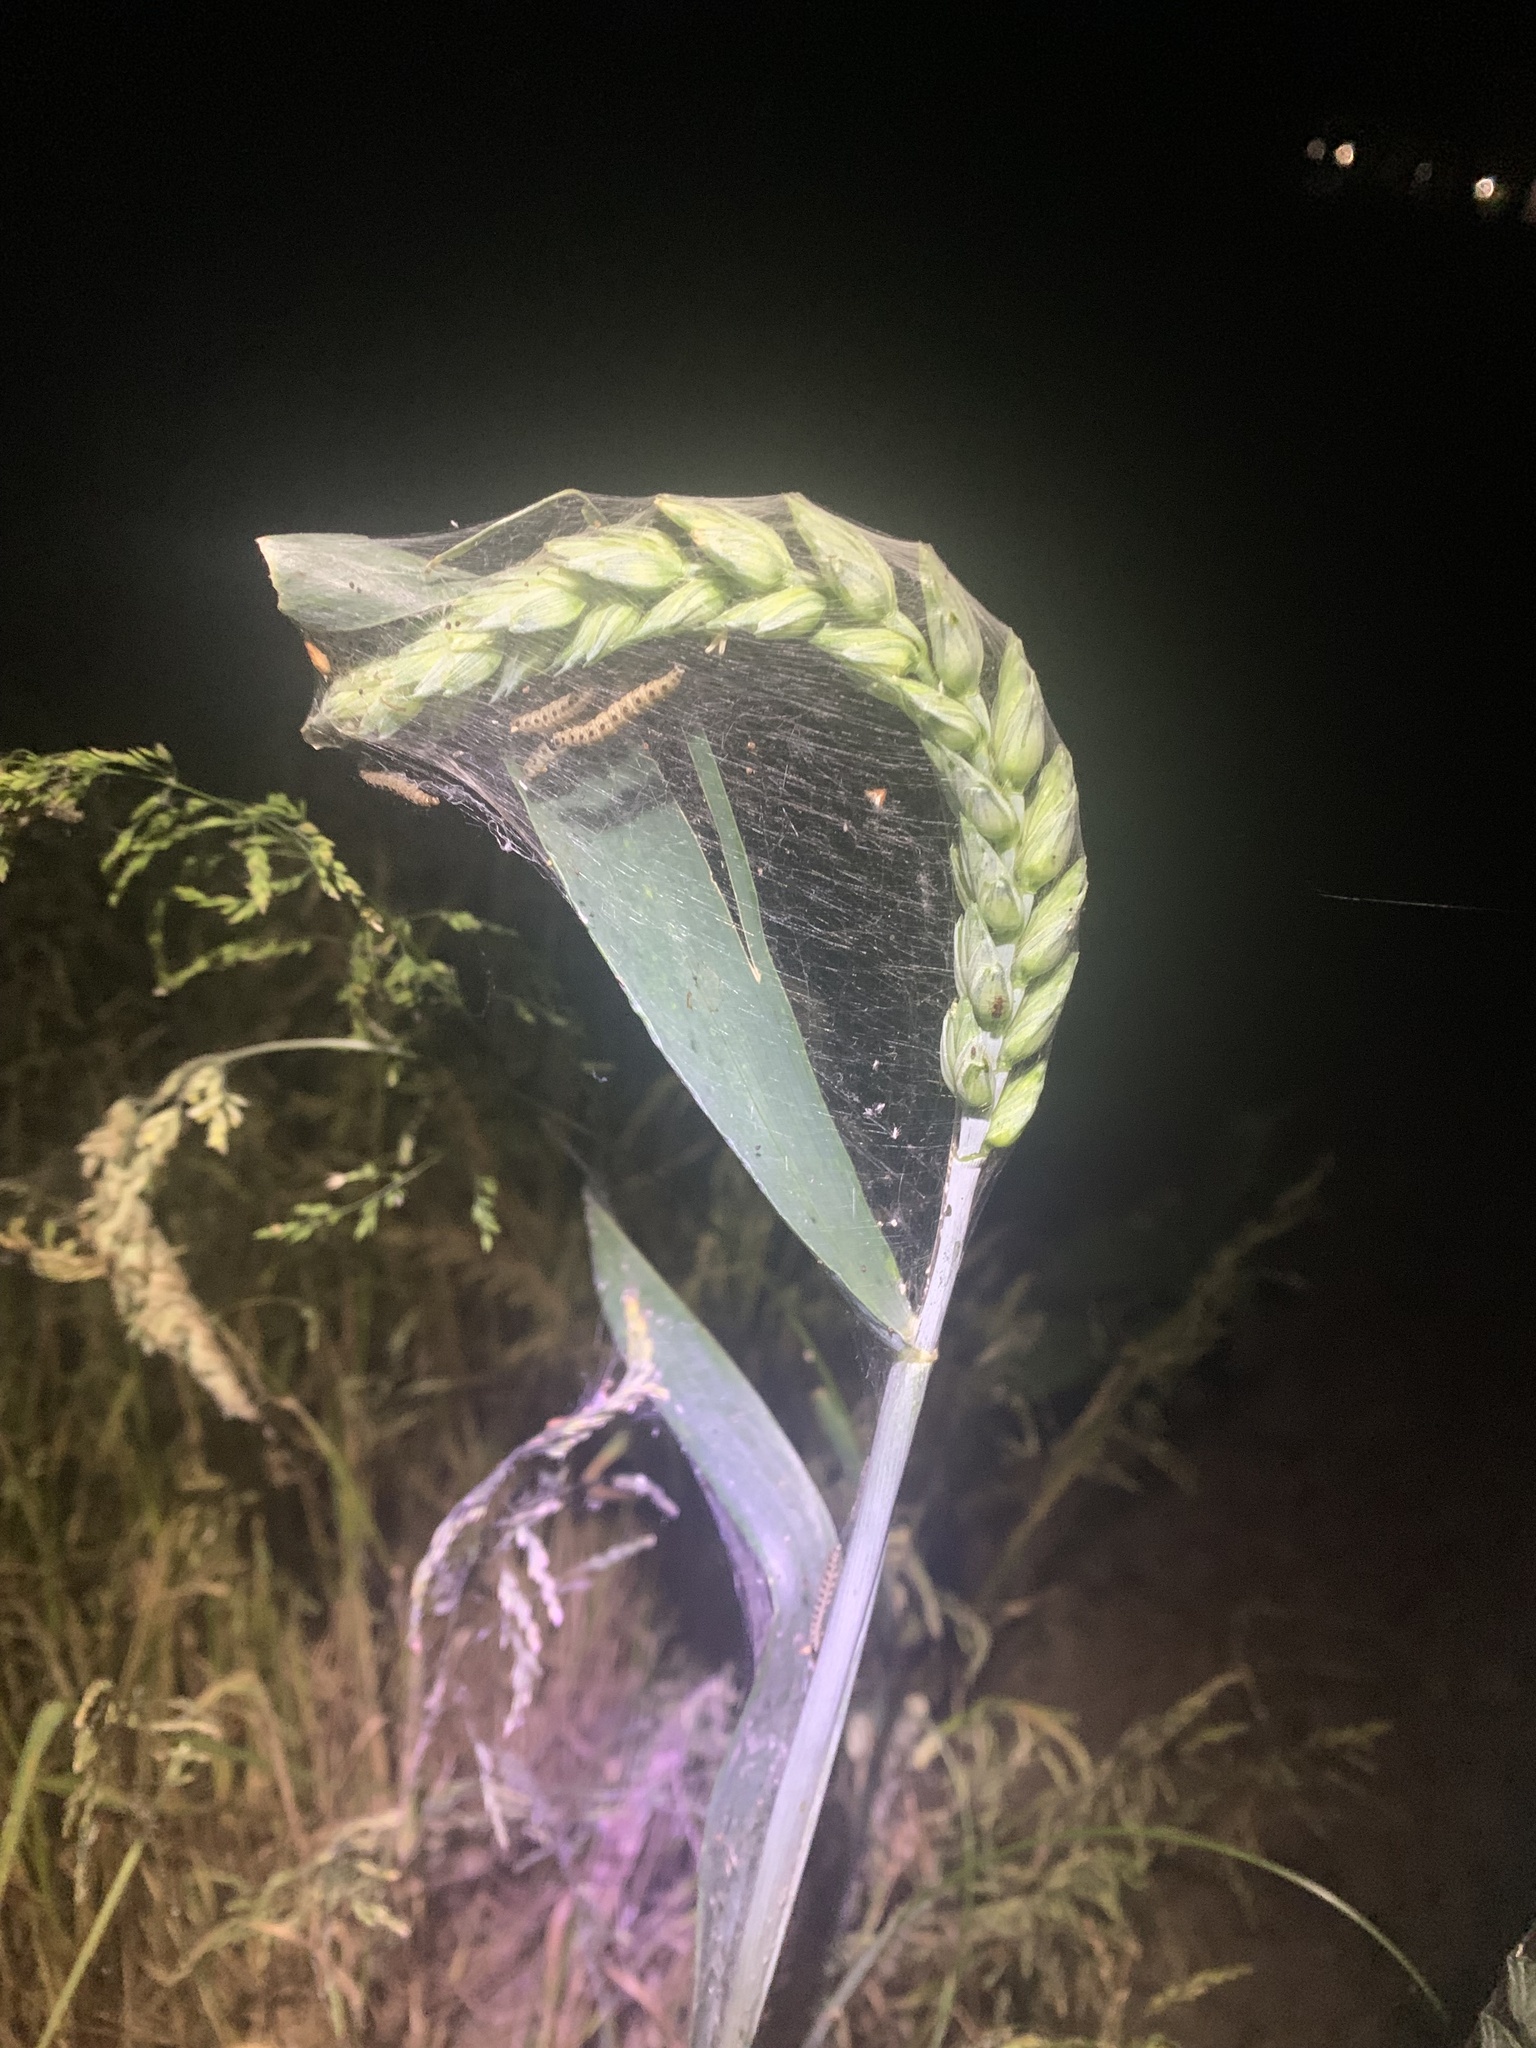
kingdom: Animalia
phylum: Arthropoda
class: Insecta
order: Lepidoptera
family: Yponomeutidae
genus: Yponomeuta
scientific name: Yponomeuta padella
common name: Orchard ermine
